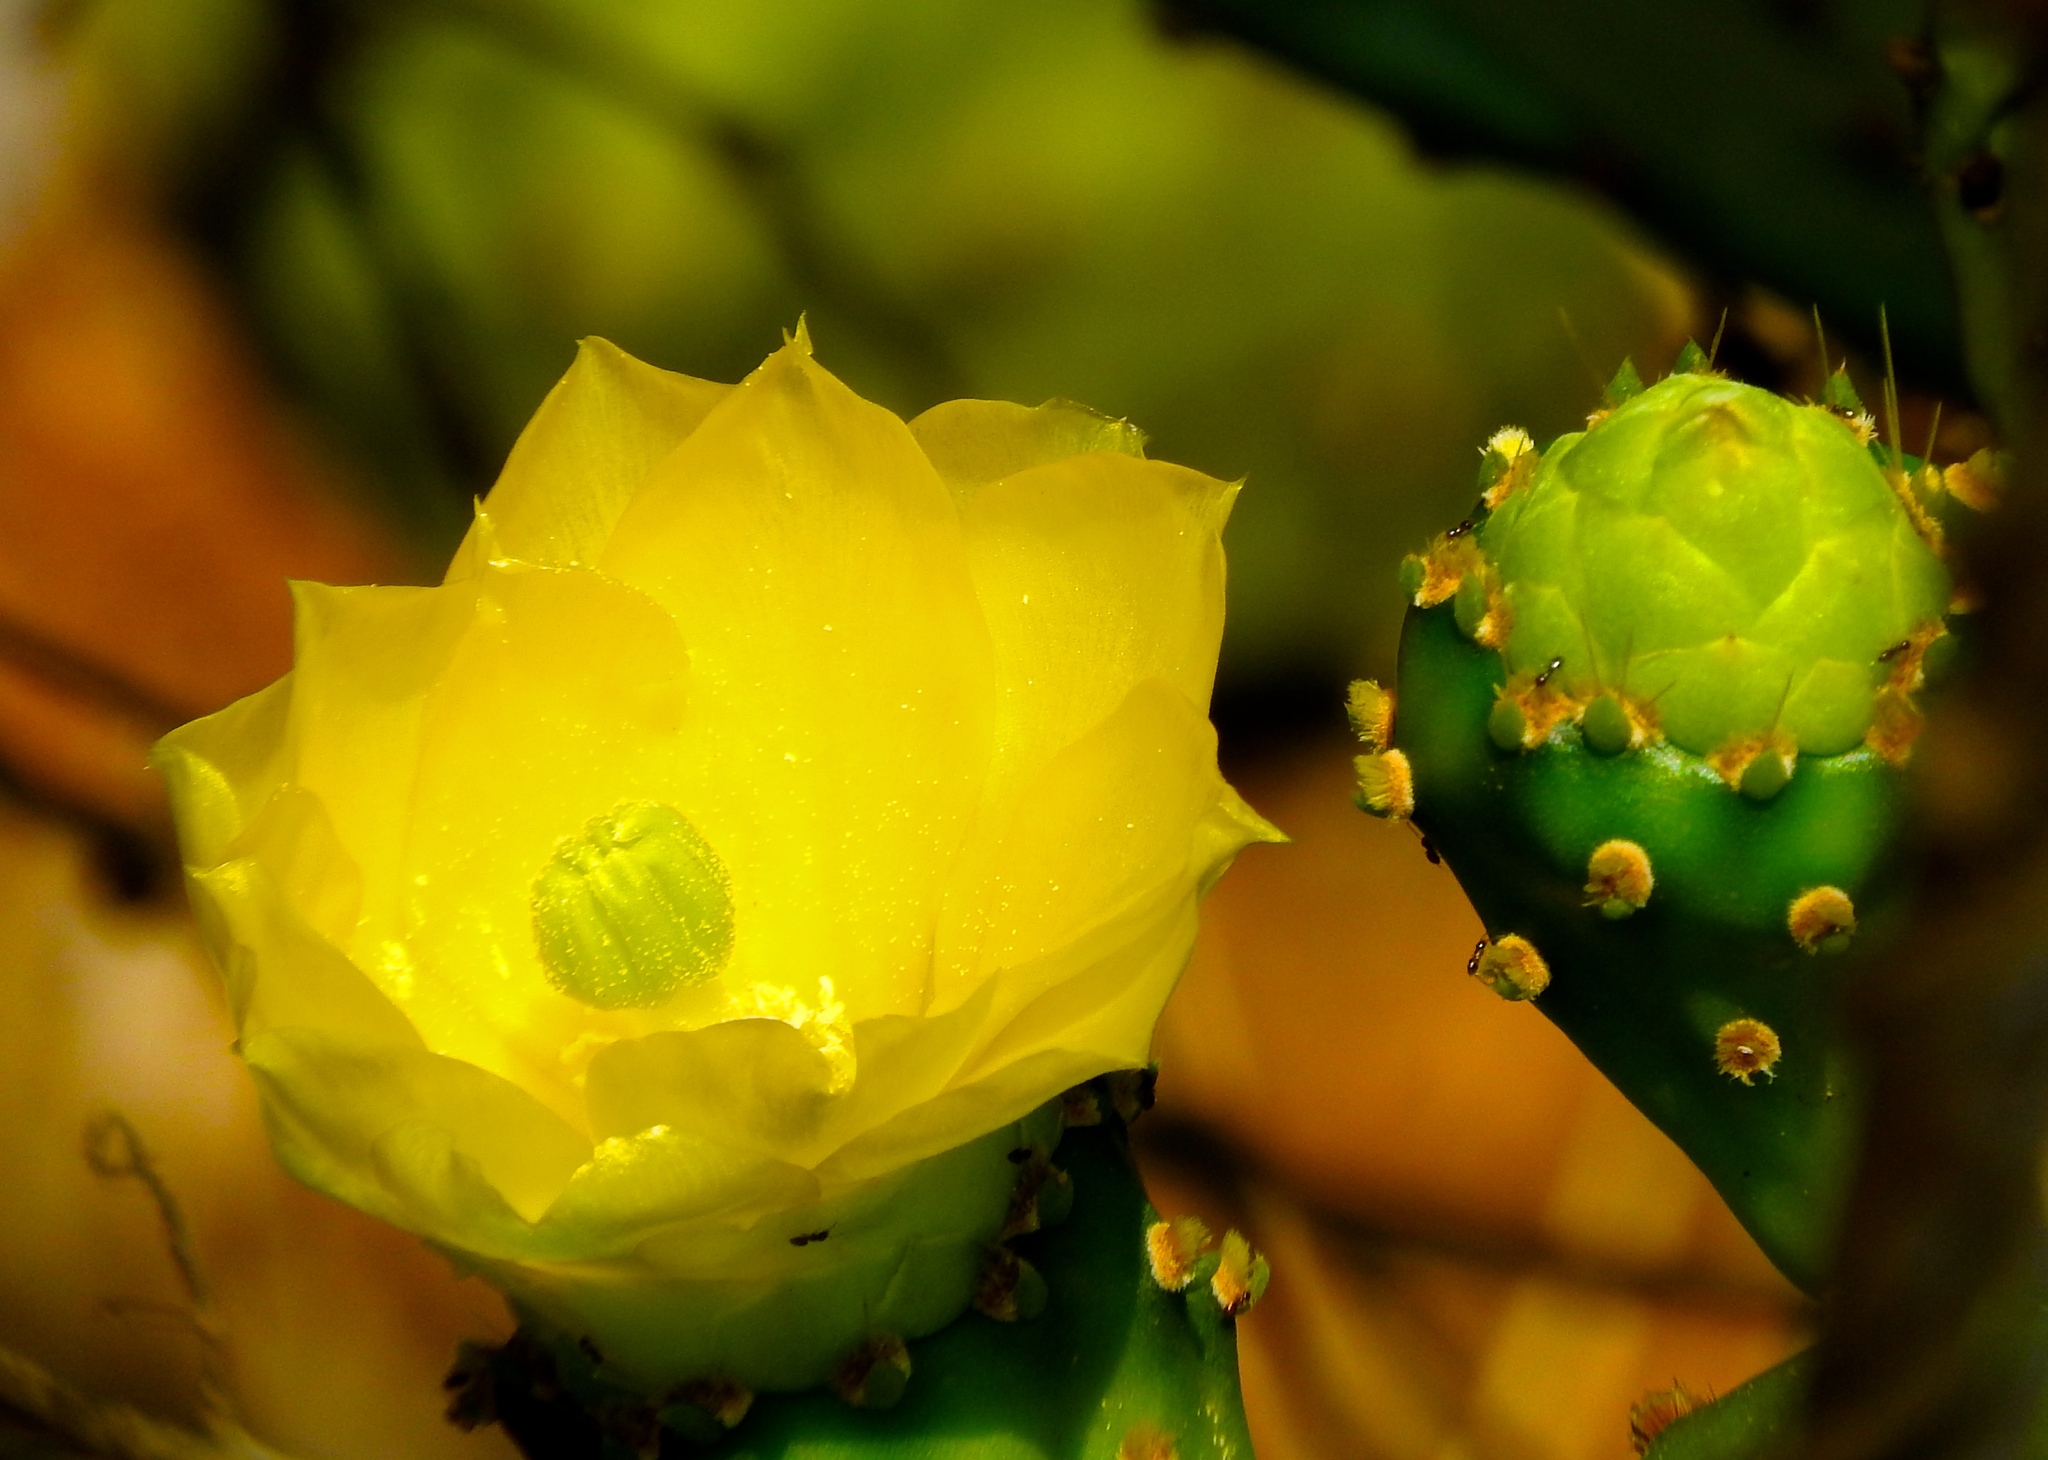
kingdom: Plantae
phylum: Tracheophyta
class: Magnoliopsida
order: Caryophyllales
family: Cactaceae
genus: Opuntia
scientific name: Opuntia
